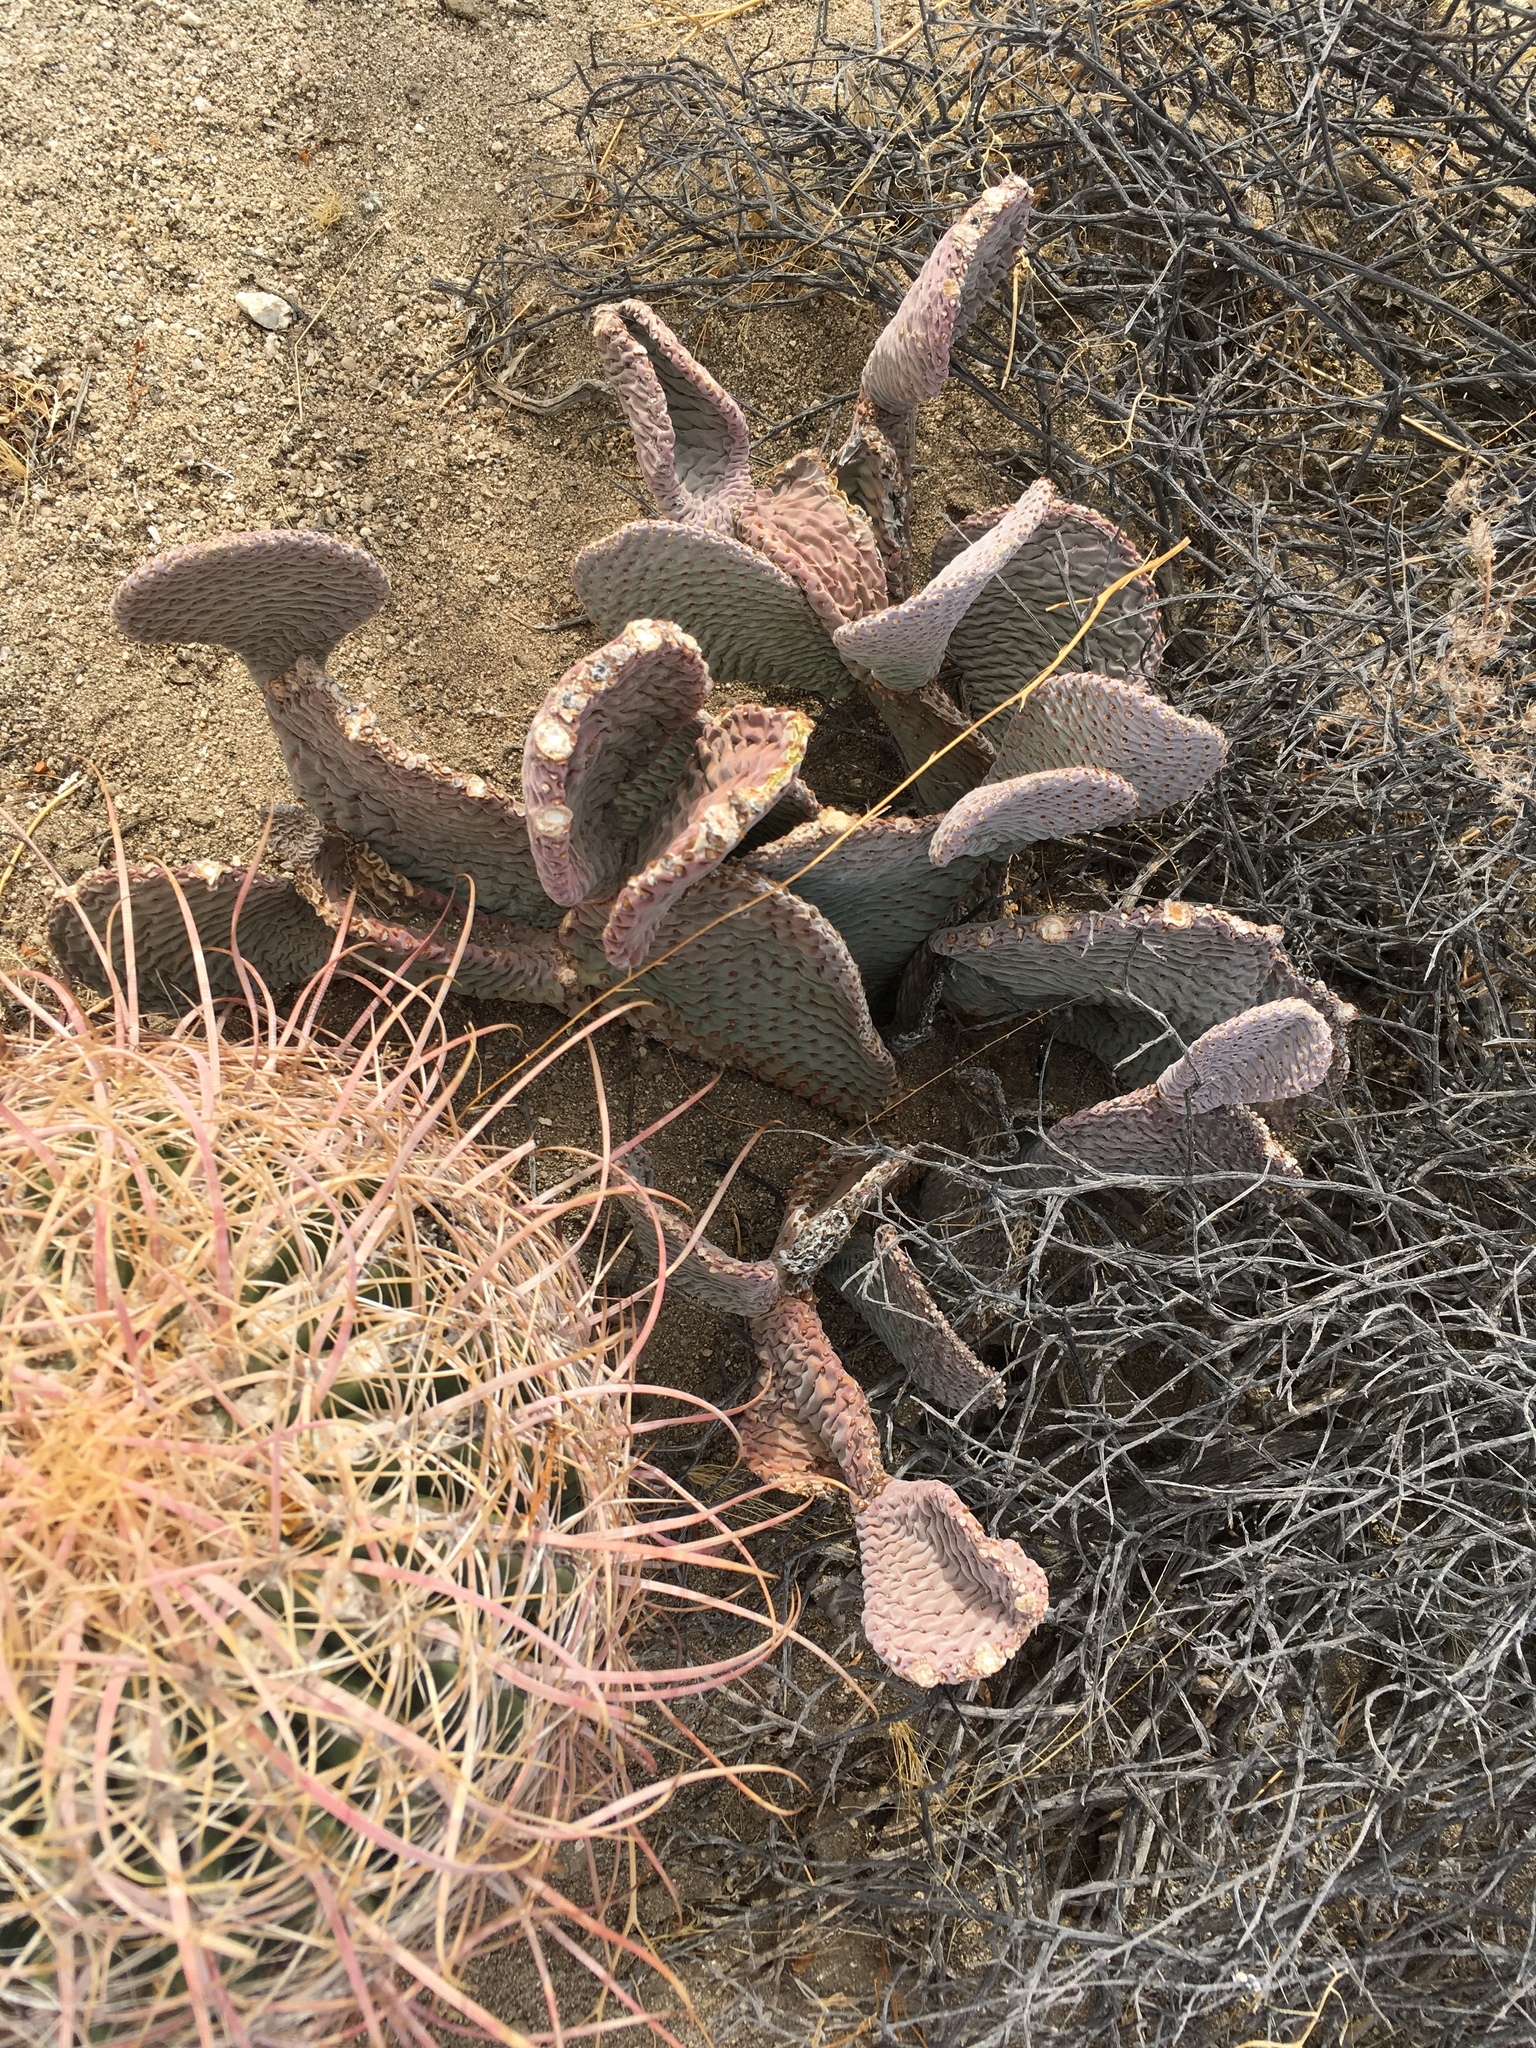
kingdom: Plantae
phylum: Tracheophyta
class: Magnoliopsida
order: Caryophyllales
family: Cactaceae
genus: Opuntia
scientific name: Opuntia basilaris
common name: Beavertail prickly-pear
